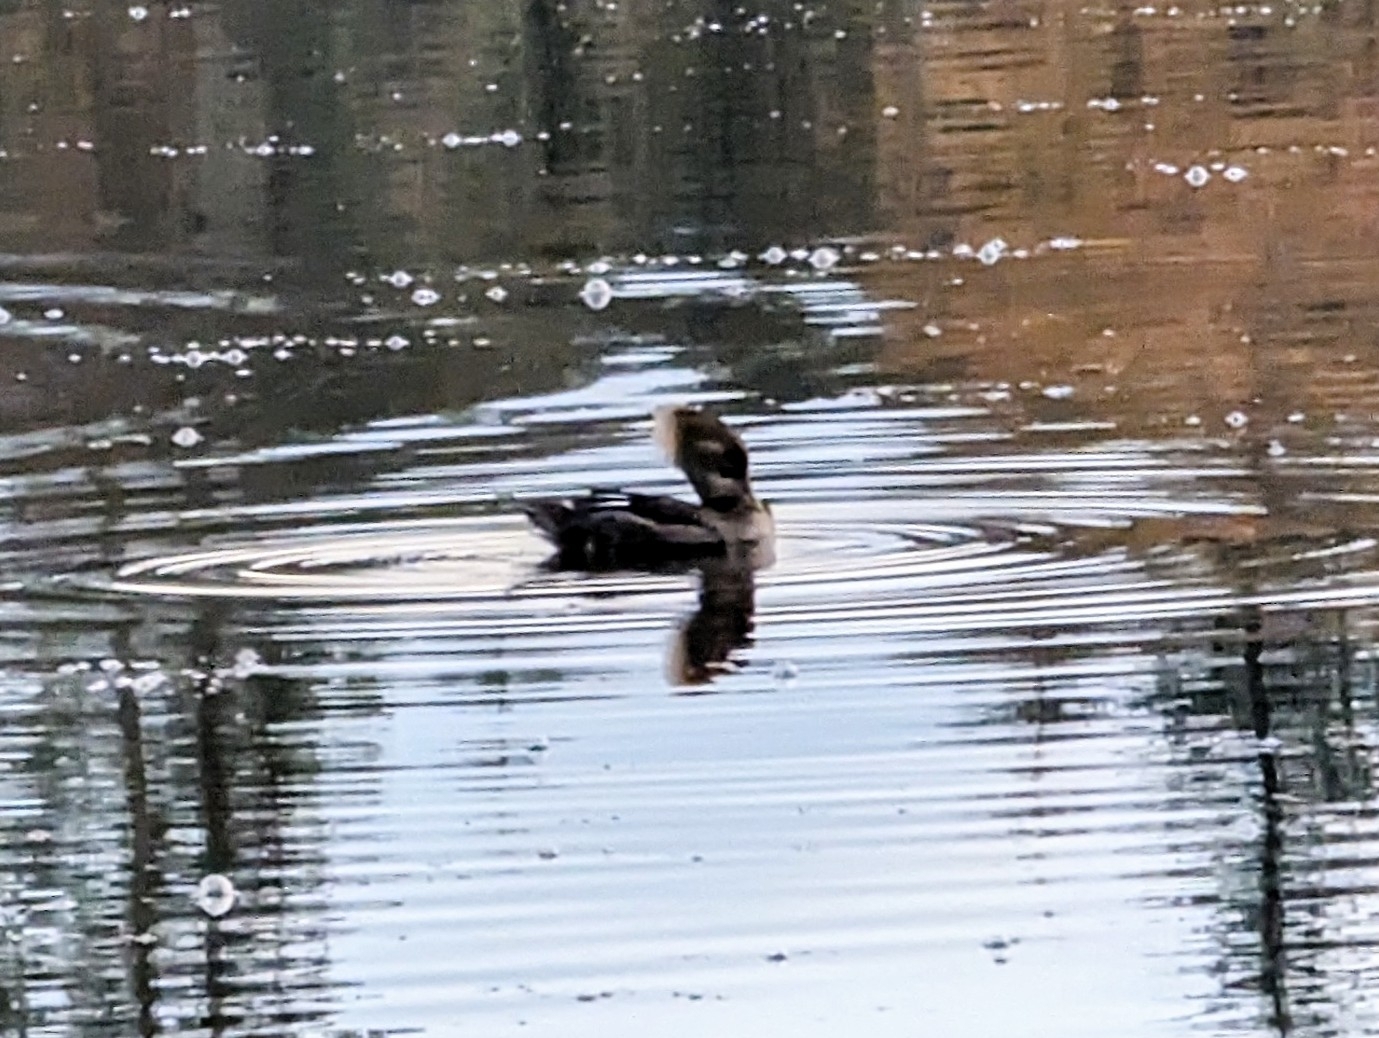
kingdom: Animalia
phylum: Chordata
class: Aves
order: Anseriformes
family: Anatidae
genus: Lophodytes
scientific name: Lophodytes cucullatus
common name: Hooded merganser
